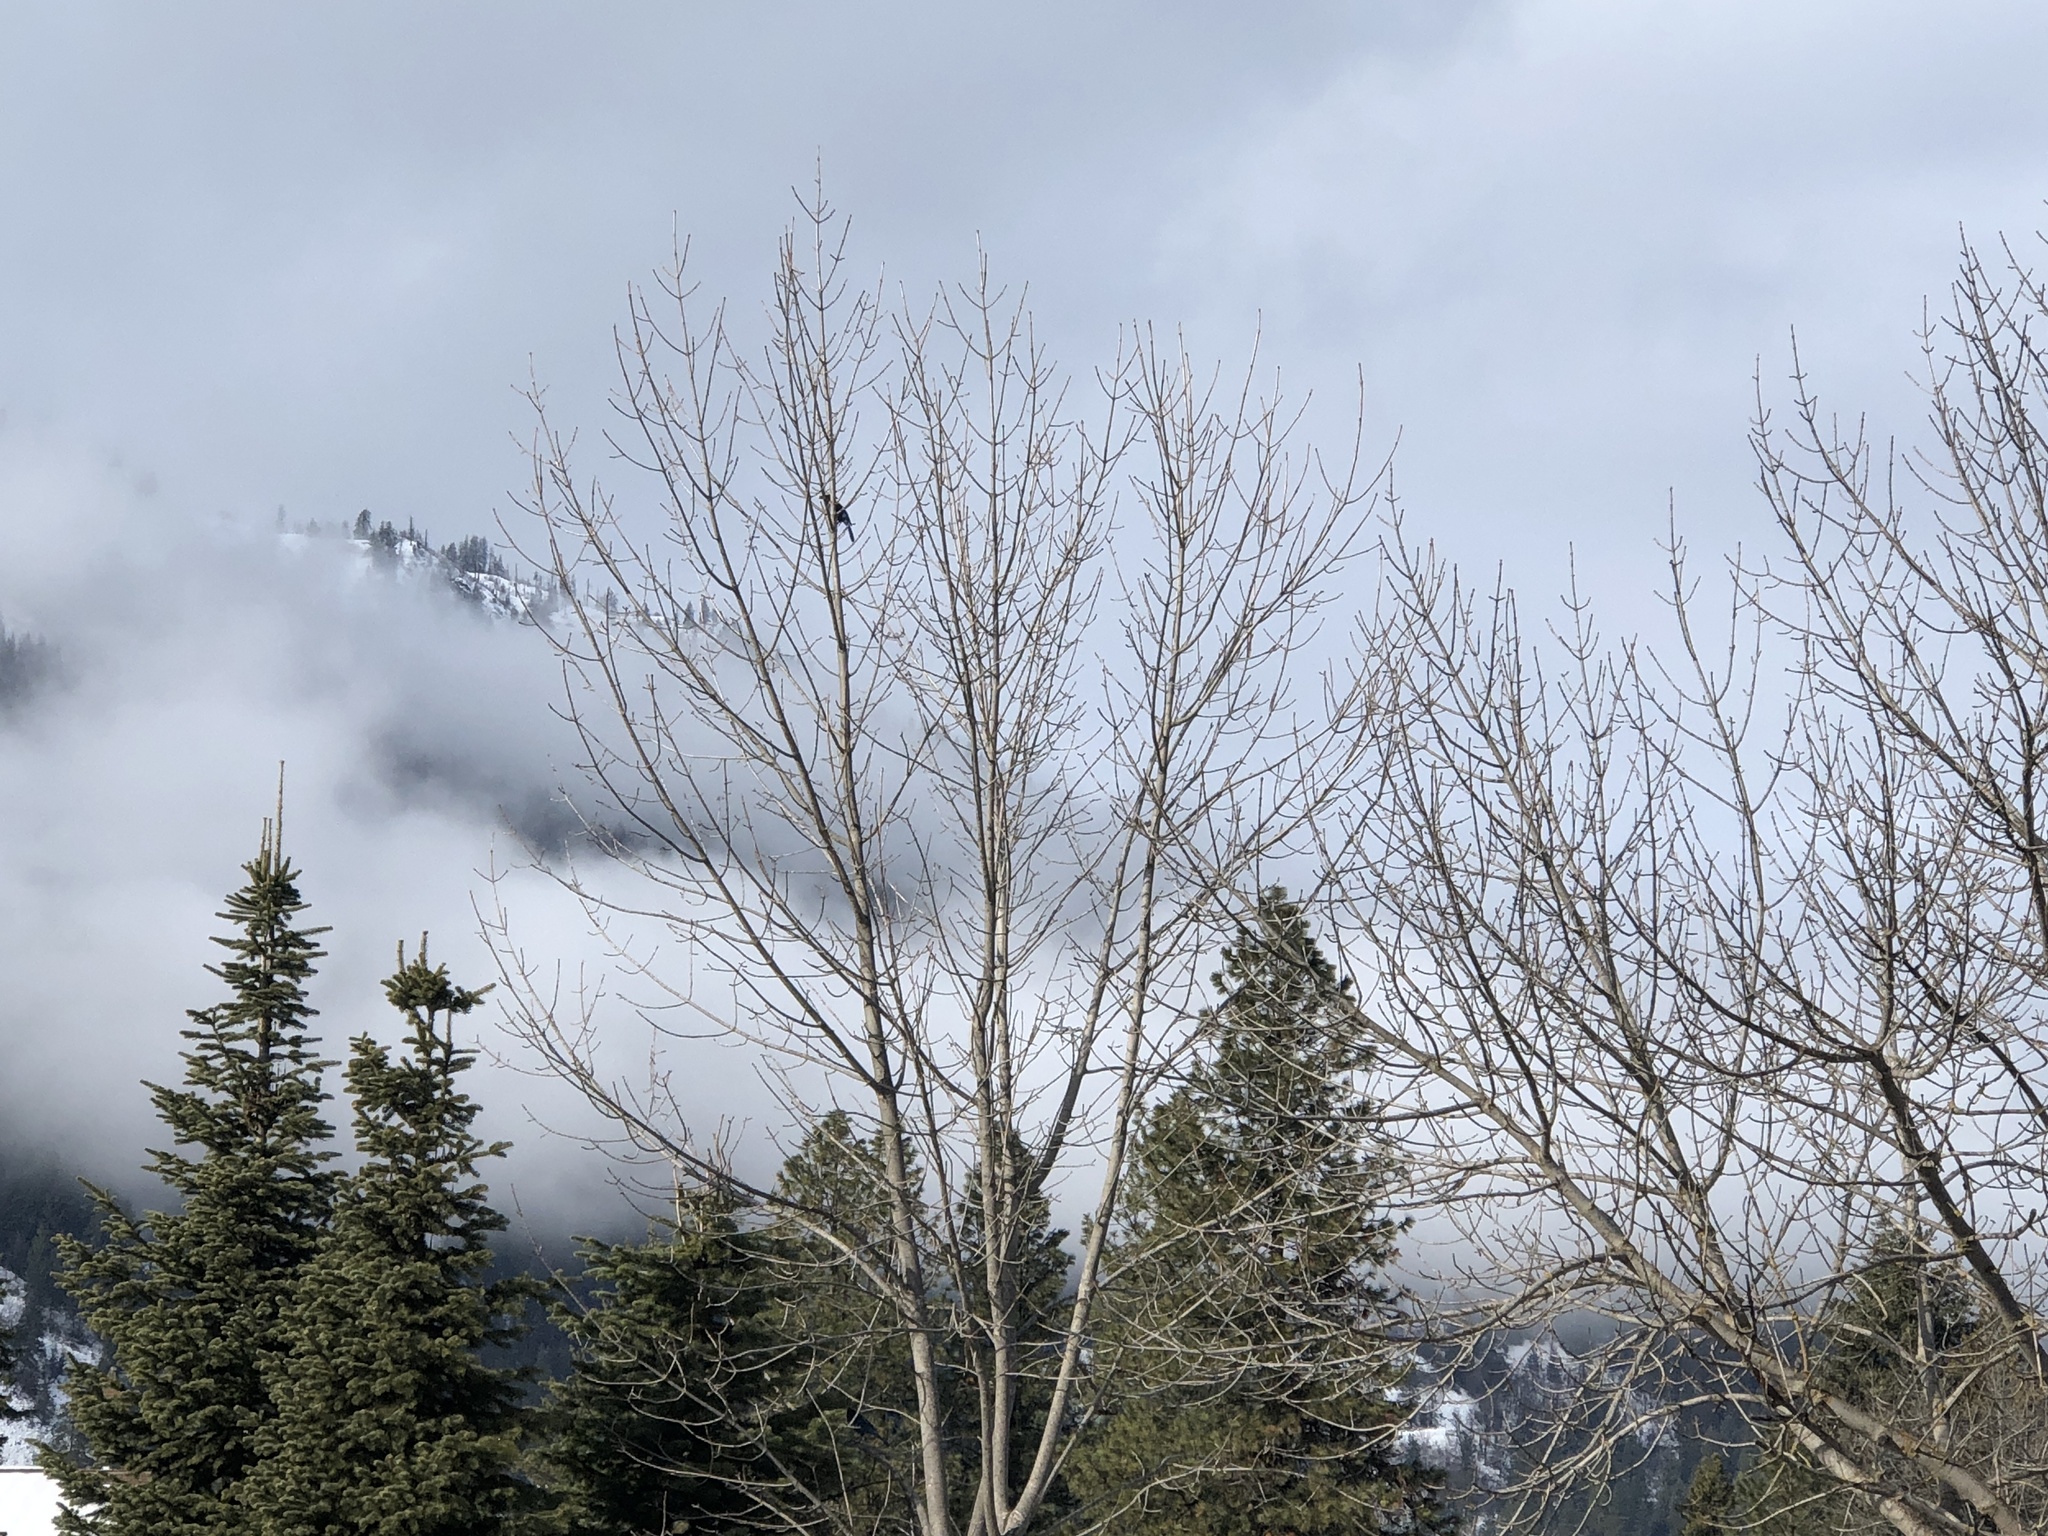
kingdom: Animalia
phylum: Chordata
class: Aves
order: Passeriformes
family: Corvidae
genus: Cyanocitta
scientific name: Cyanocitta stelleri
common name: Steller's jay
